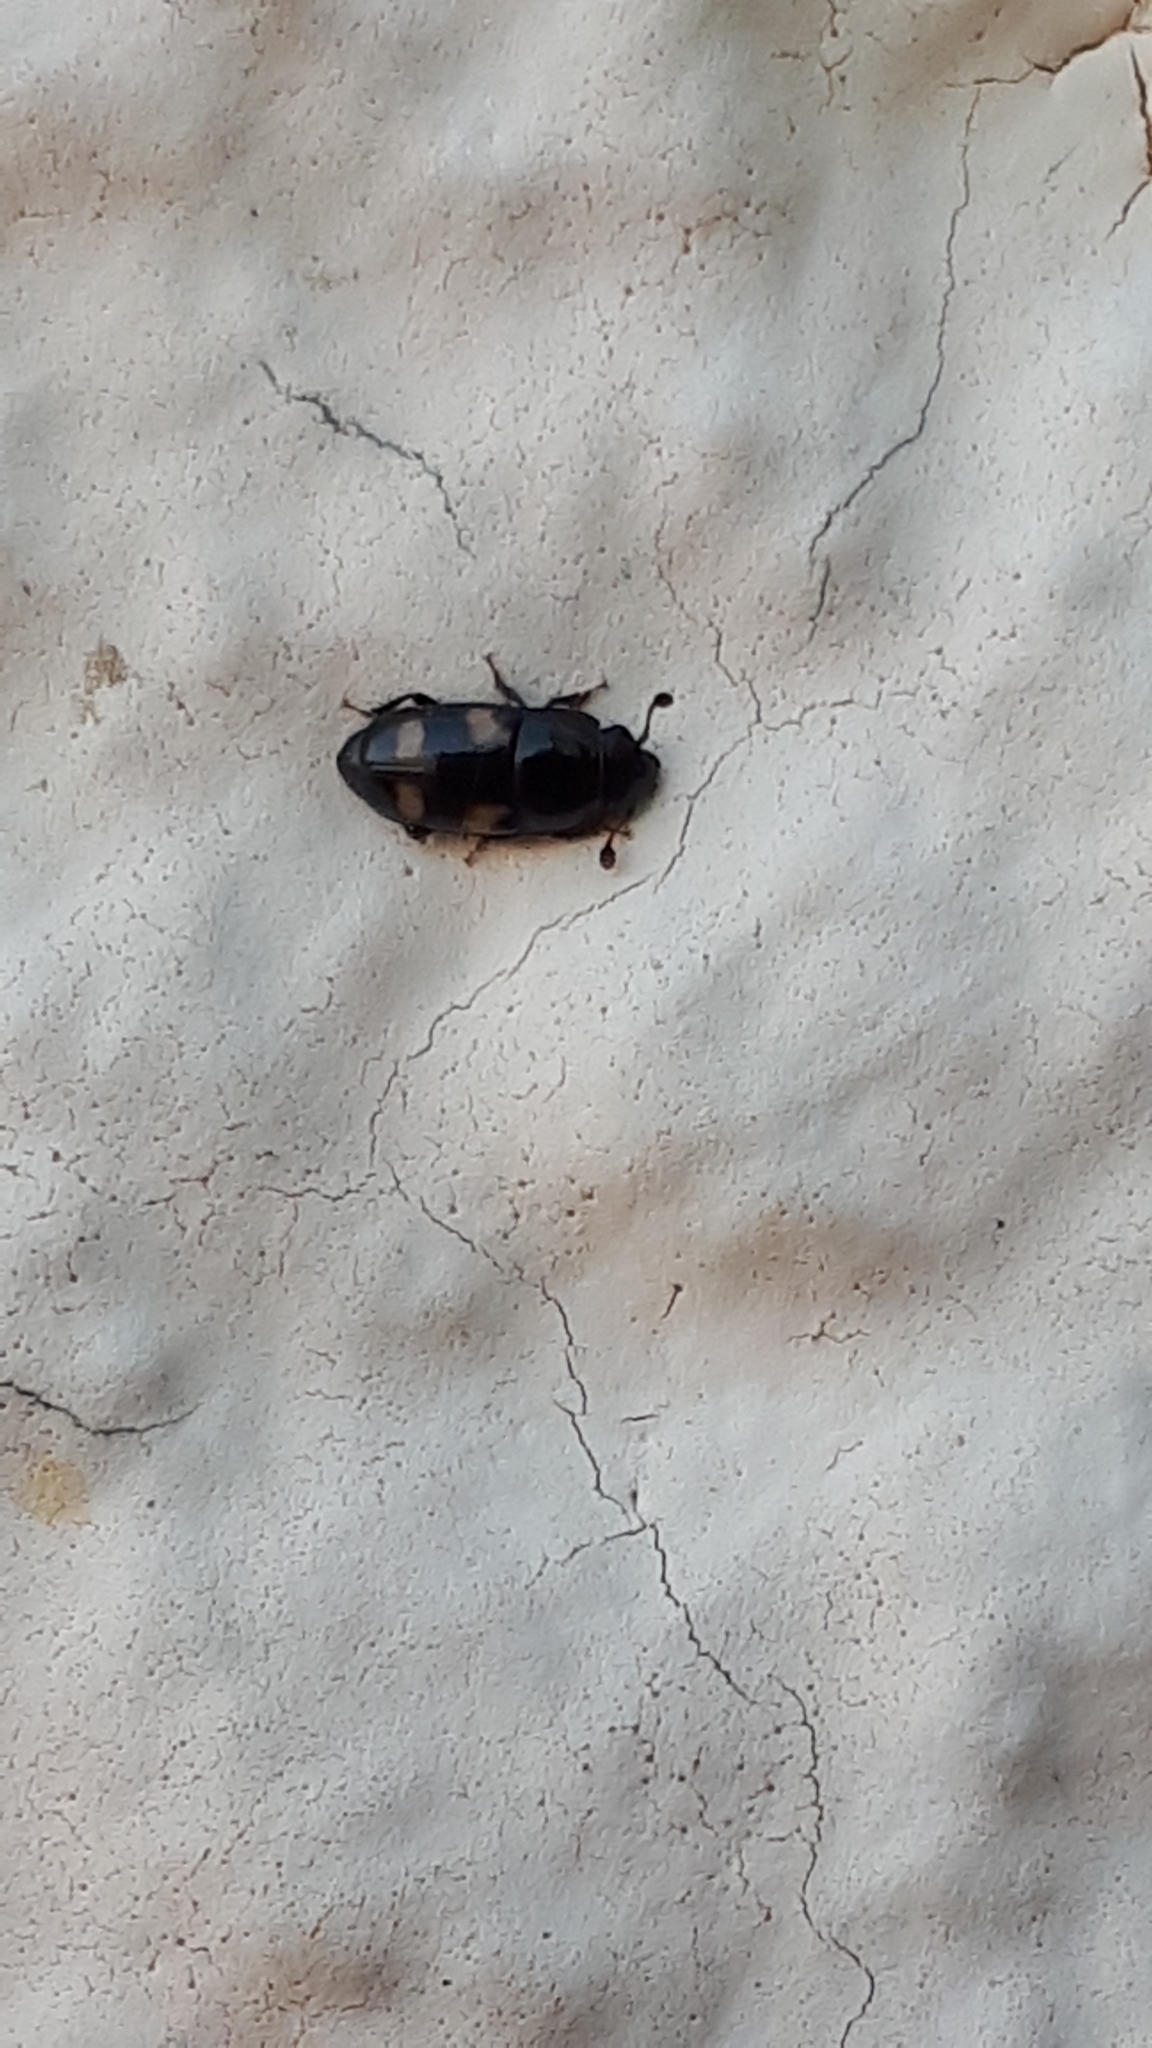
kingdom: Animalia
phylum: Arthropoda
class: Insecta
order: Coleoptera
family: Nitidulidae
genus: Glischrochilus
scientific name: Glischrochilus quadrisignatus
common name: Picnic beetle
